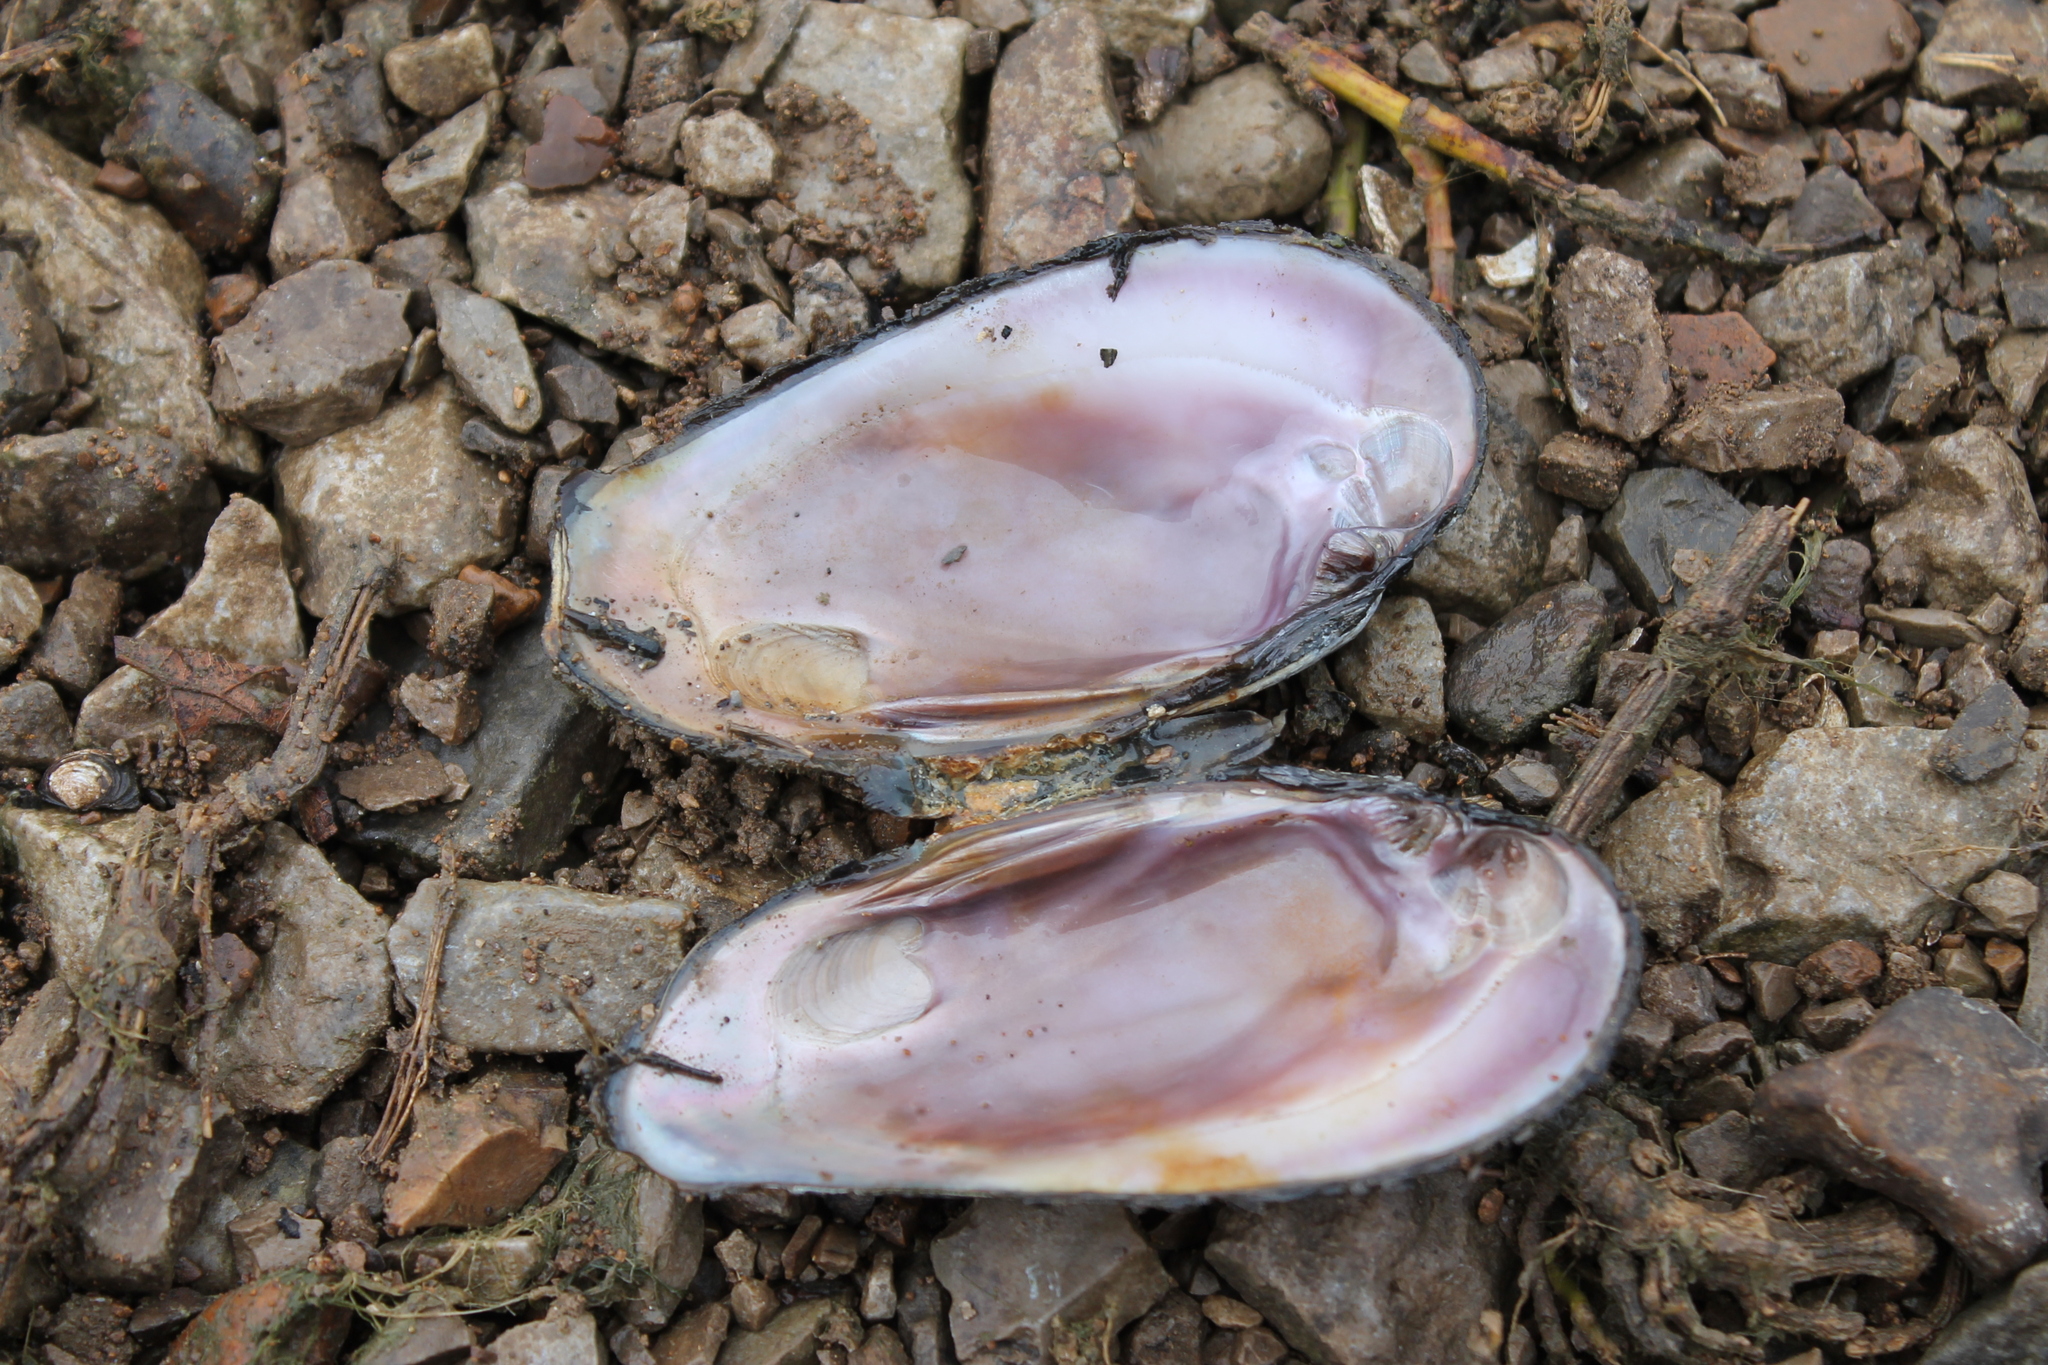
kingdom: Animalia
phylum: Mollusca
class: Bivalvia
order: Unionida
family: Unionidae
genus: Eurynia
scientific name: Eurynia dilatata
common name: Spike
